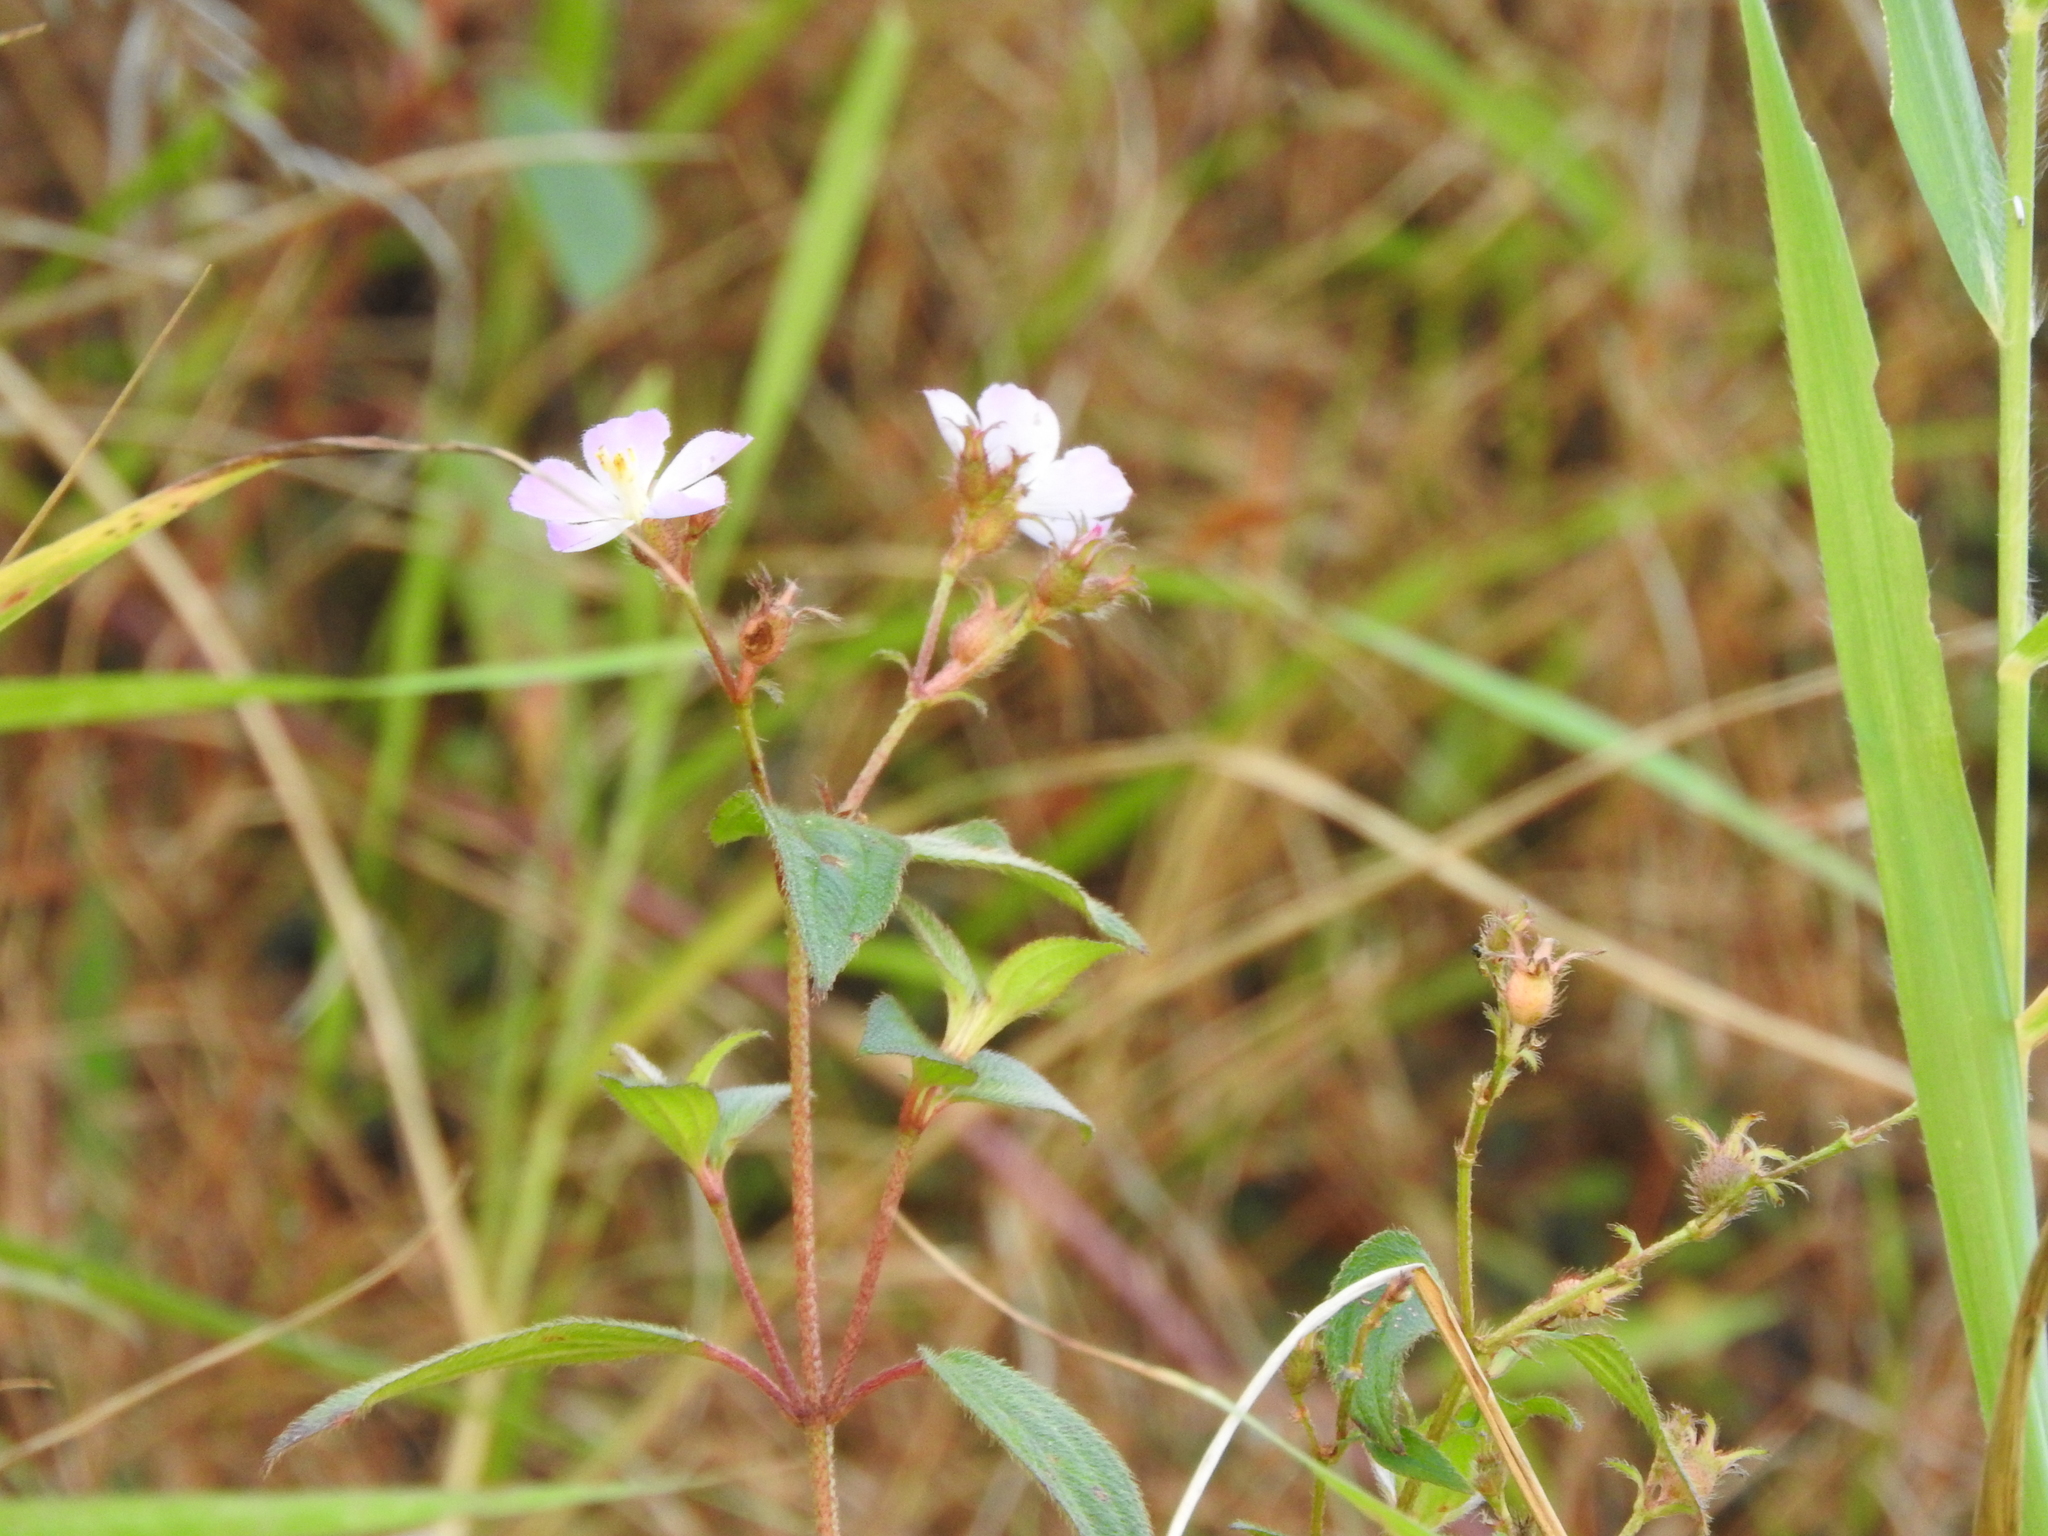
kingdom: Plantae
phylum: Tracheophyta
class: Magnoliopsida
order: Myrtales
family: Melastomataceae
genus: Chaetogastra
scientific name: Chaetogastra naudiniana
